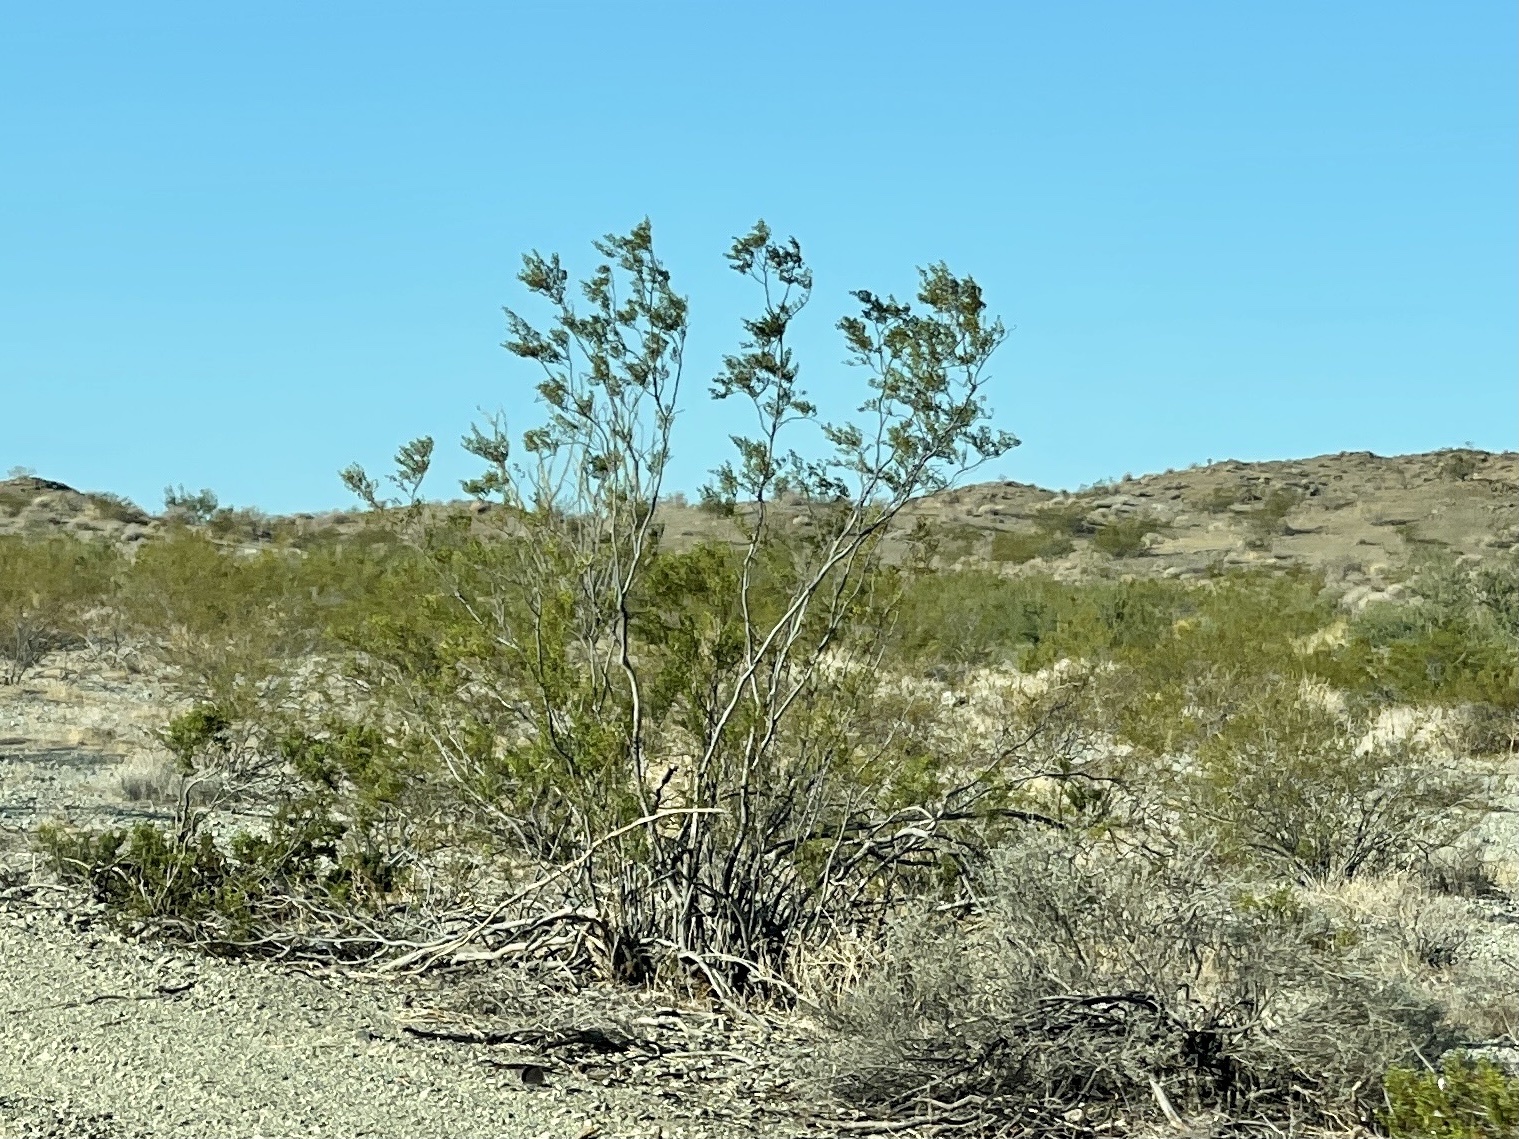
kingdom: Plantae
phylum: Tracheophyta
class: Magnoliopsida
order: Zygophyllales
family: Zygophyllaceae
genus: Larrea
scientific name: Larrea tridentata
